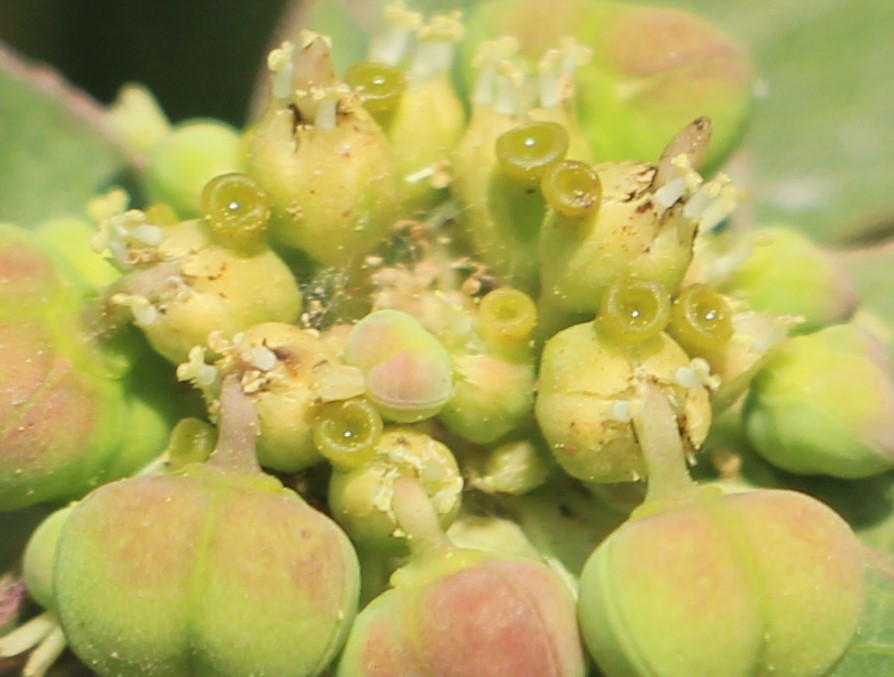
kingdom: Plantae
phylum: Tracheophyta
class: Magnoliopsida
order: Malpighiales
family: Euphorbiaceae
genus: Euphorbia
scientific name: Euphorbia heterophylla
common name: Mexican fireplant
